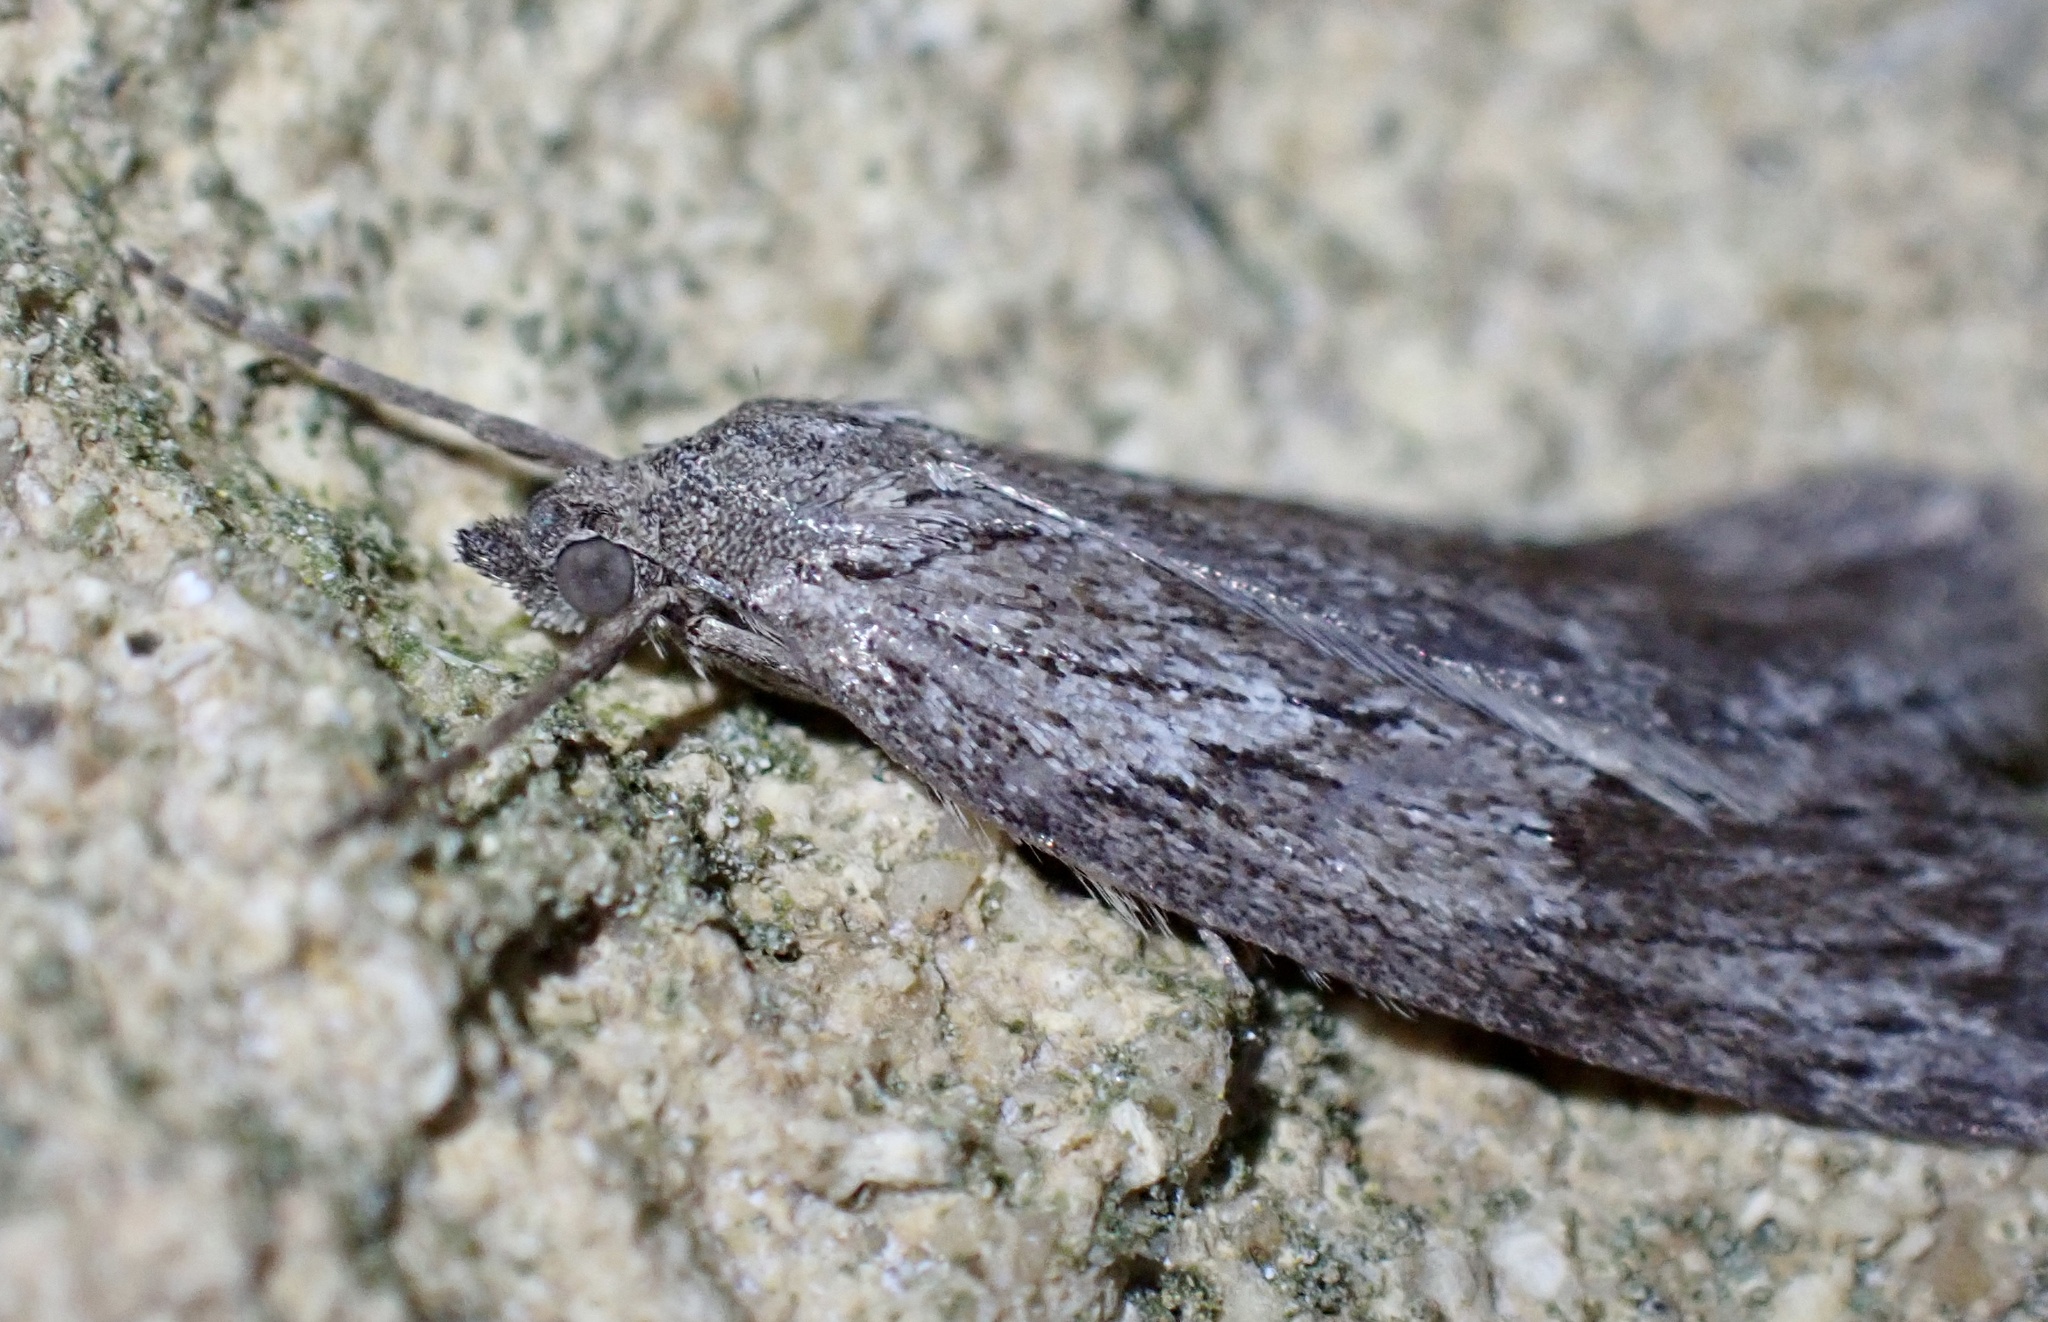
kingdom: Animalia
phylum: Arthropoda
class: Insecta
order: Lepidoptera
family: Geometridae
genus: Pachycnemia
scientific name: Pachycnemia hippocastanaria
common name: Horse chestnut
